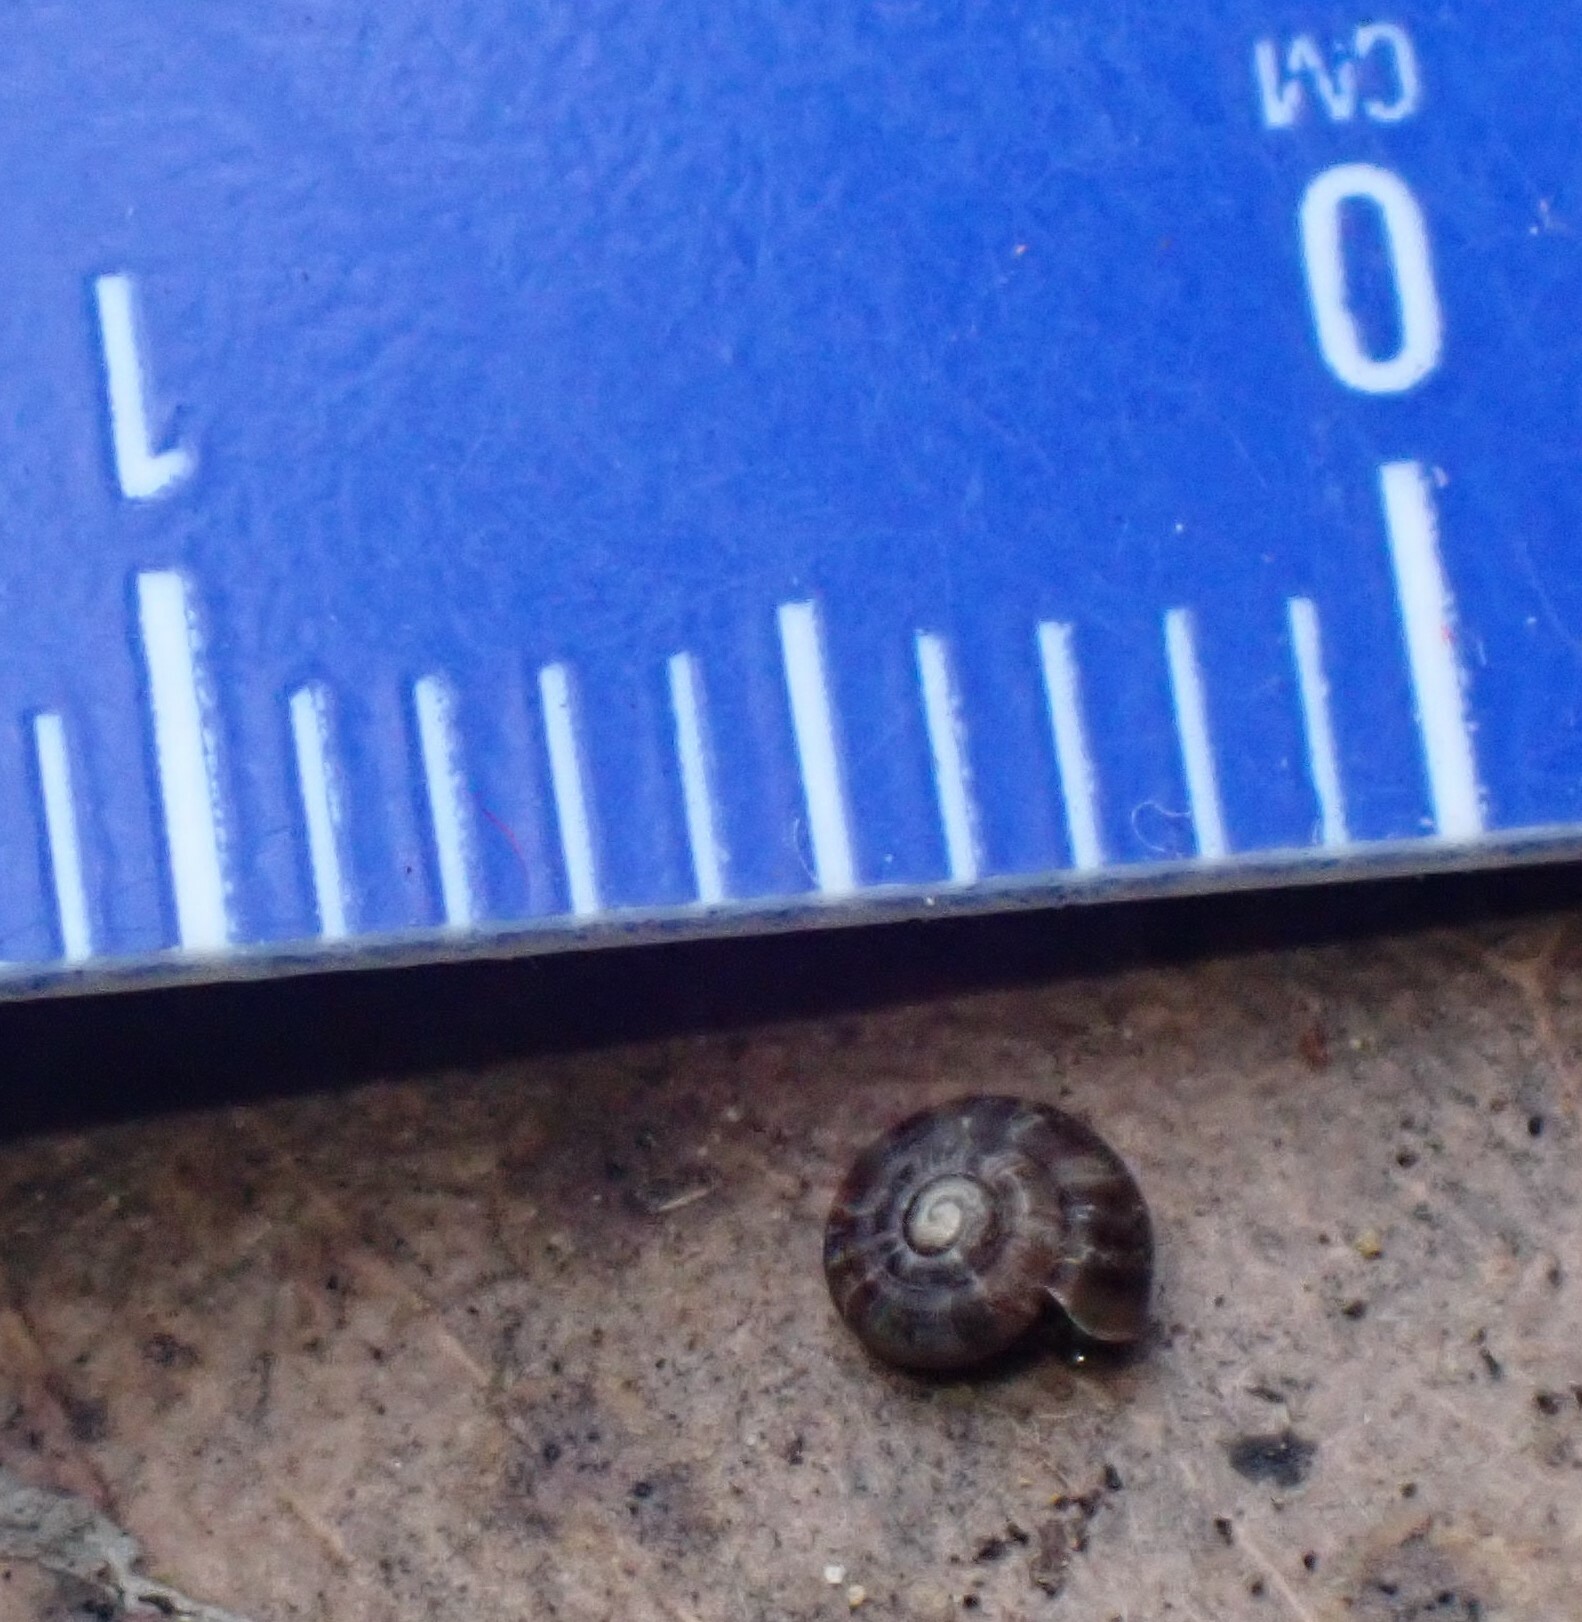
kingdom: Animalia
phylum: Mollusca
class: Gastropoda
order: Stylommatophora
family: Cystopeltidae
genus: Diemenoropa
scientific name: Diemenoropa kingstonensis
